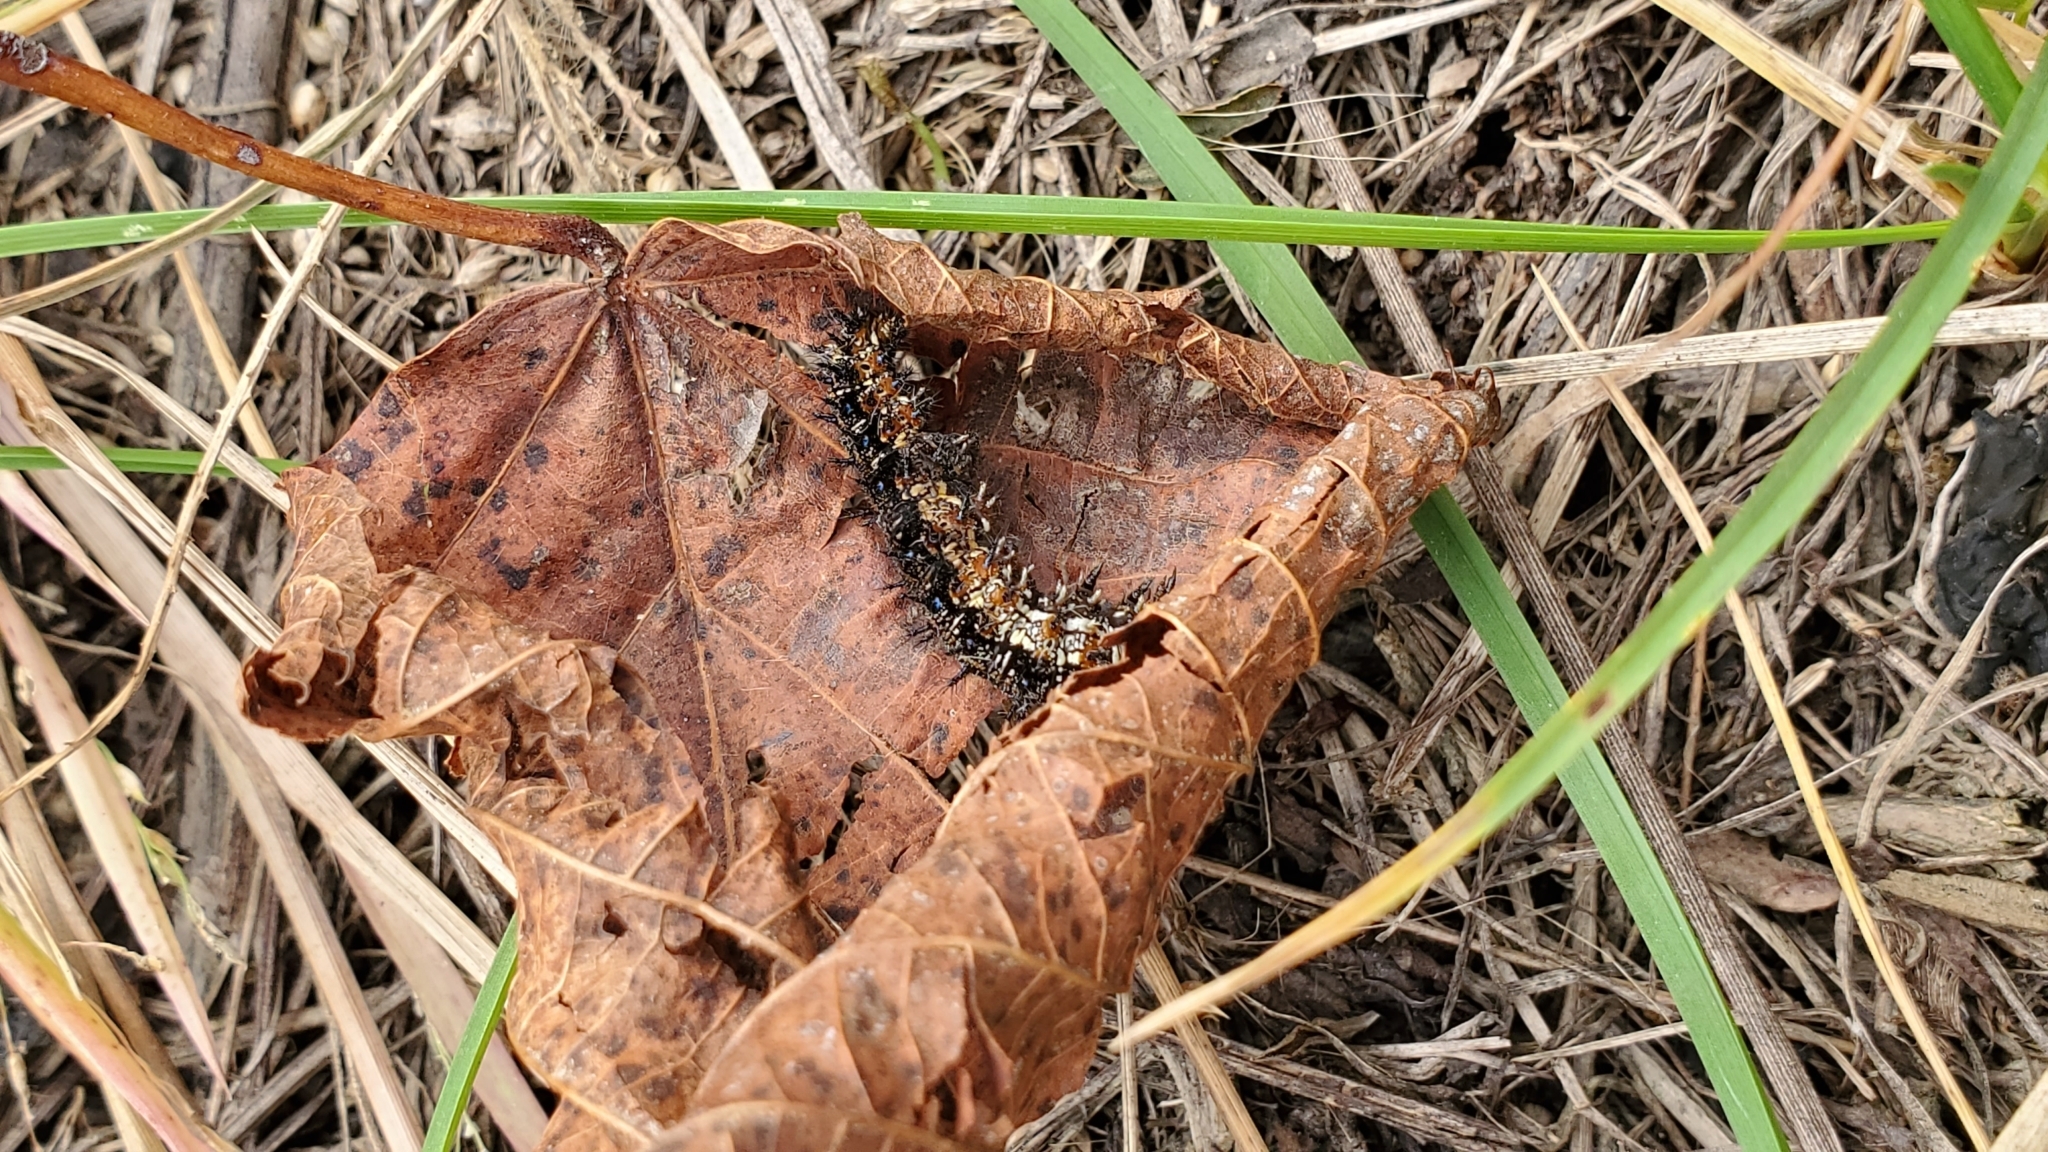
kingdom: Animalia
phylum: Arthropoda
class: Insecta
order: Lepidoptera
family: Nymphalidae
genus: Junonia
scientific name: Junonia coenia
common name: Common buckeye
